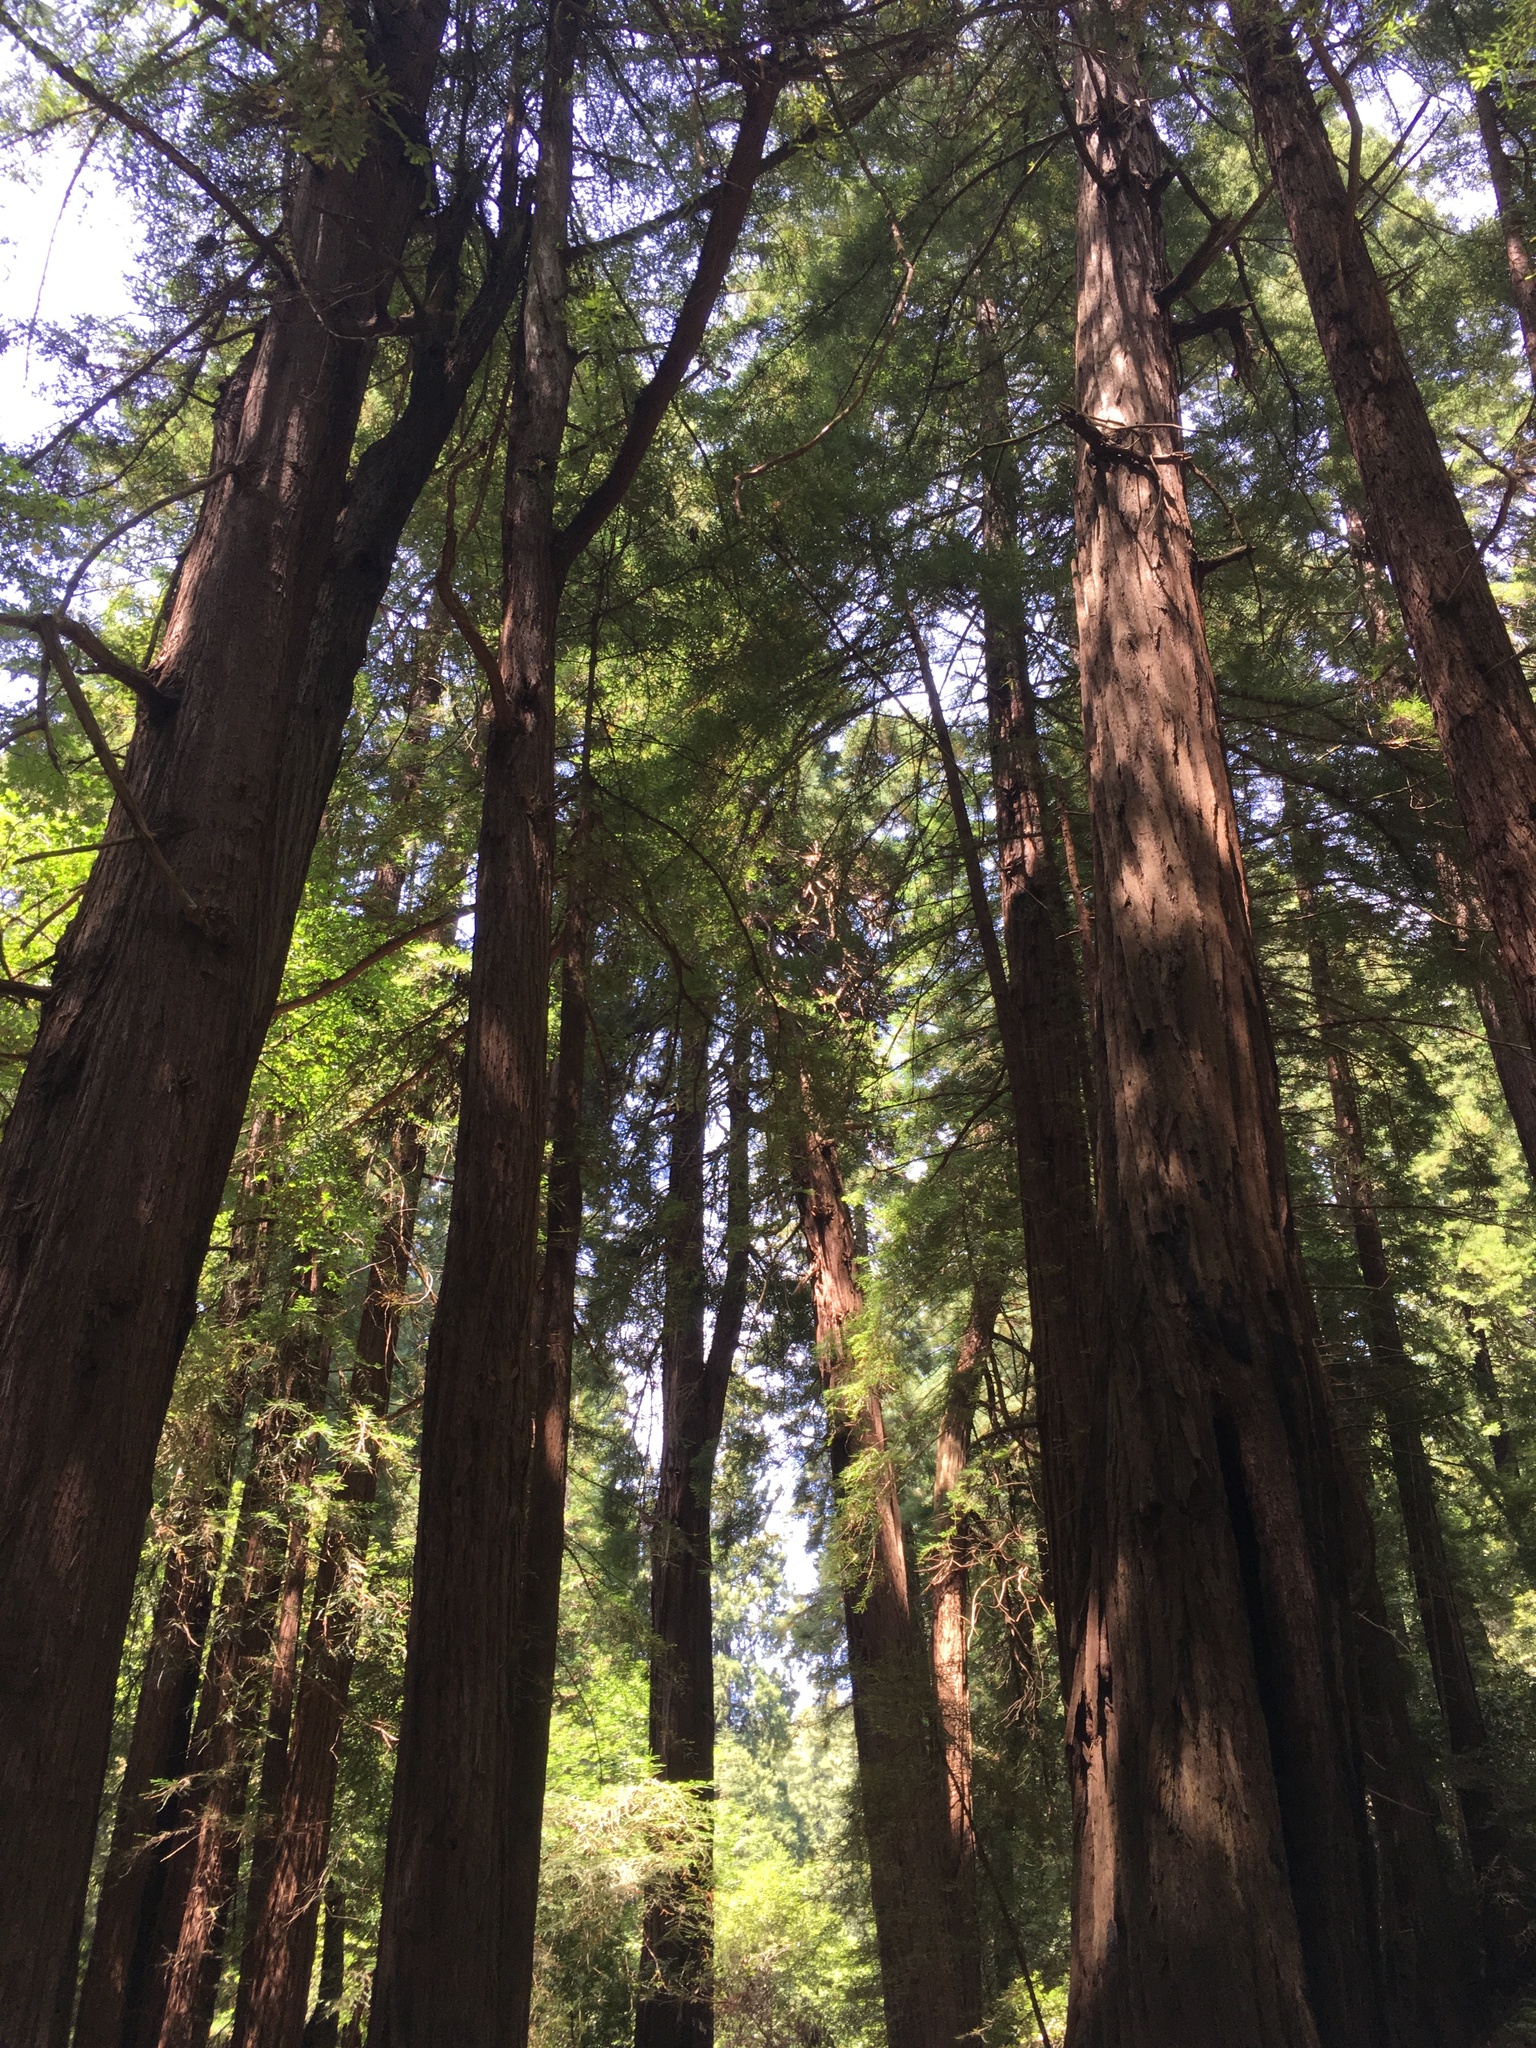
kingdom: Plantae
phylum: Tracheophyta
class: Pinopsida
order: Pinales
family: Cupressaceae
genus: Sequoia
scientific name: Sequoia sempervirens
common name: Coast redwood
